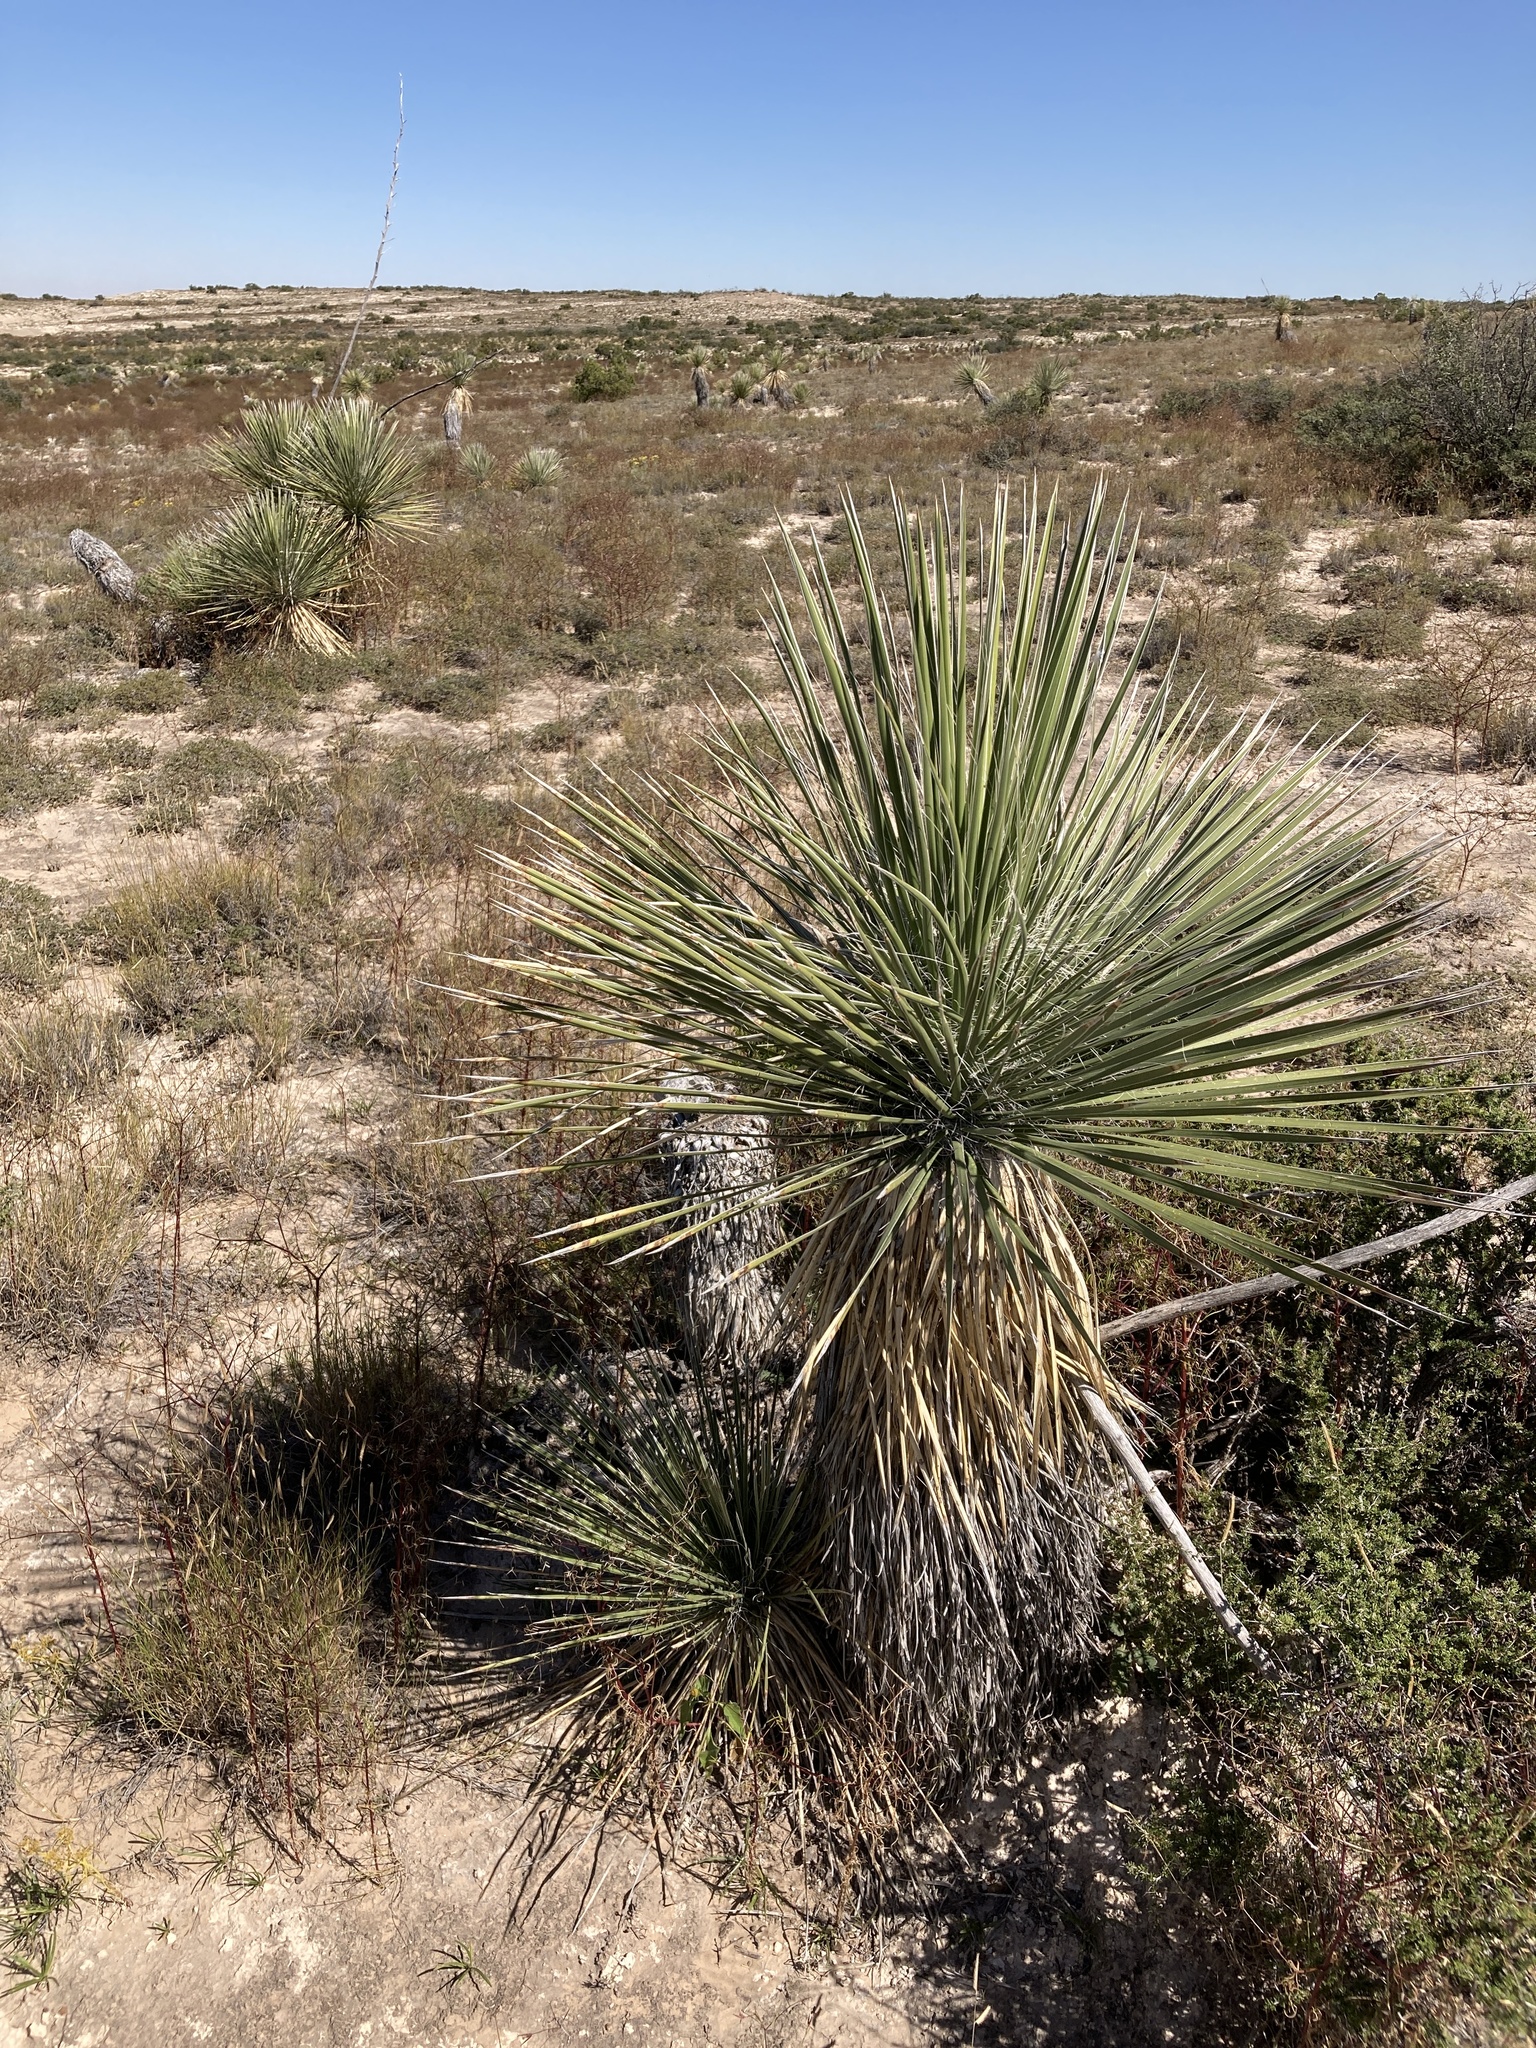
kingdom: Plantae
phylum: Tracheophyta
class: Liliopsida
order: Asparagales
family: Asparagaceae
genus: Yucca
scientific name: Yucca elata
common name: Palmella
